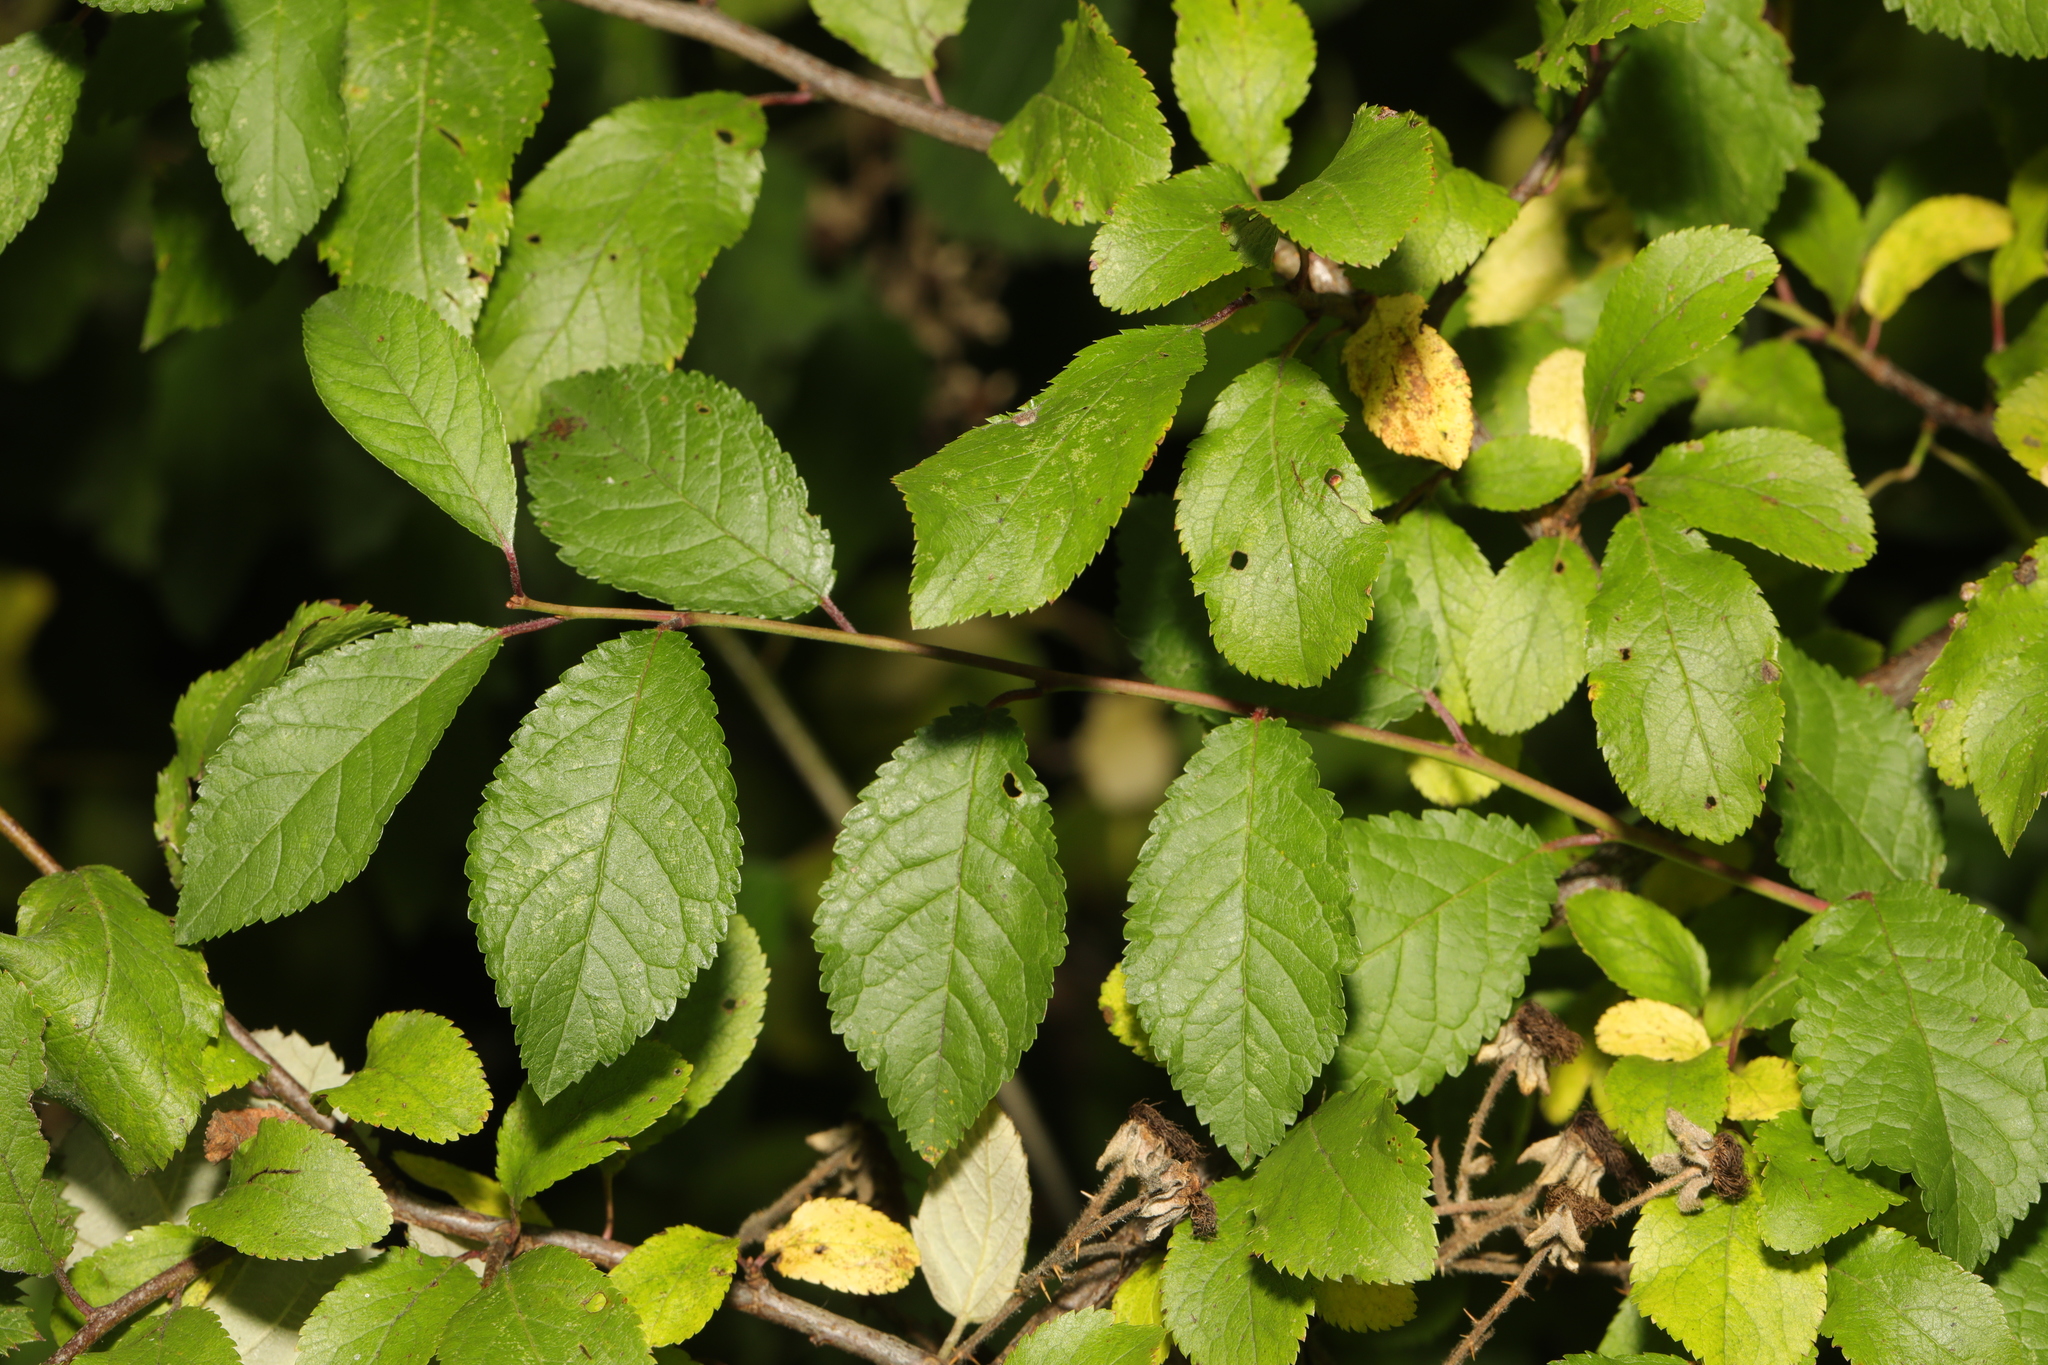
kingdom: Plantae
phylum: Tracheophyta
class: Magnoliopsida
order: Rosales
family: Rosaceae
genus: Prunus
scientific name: Prunus spinosa
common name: Blackthorn
